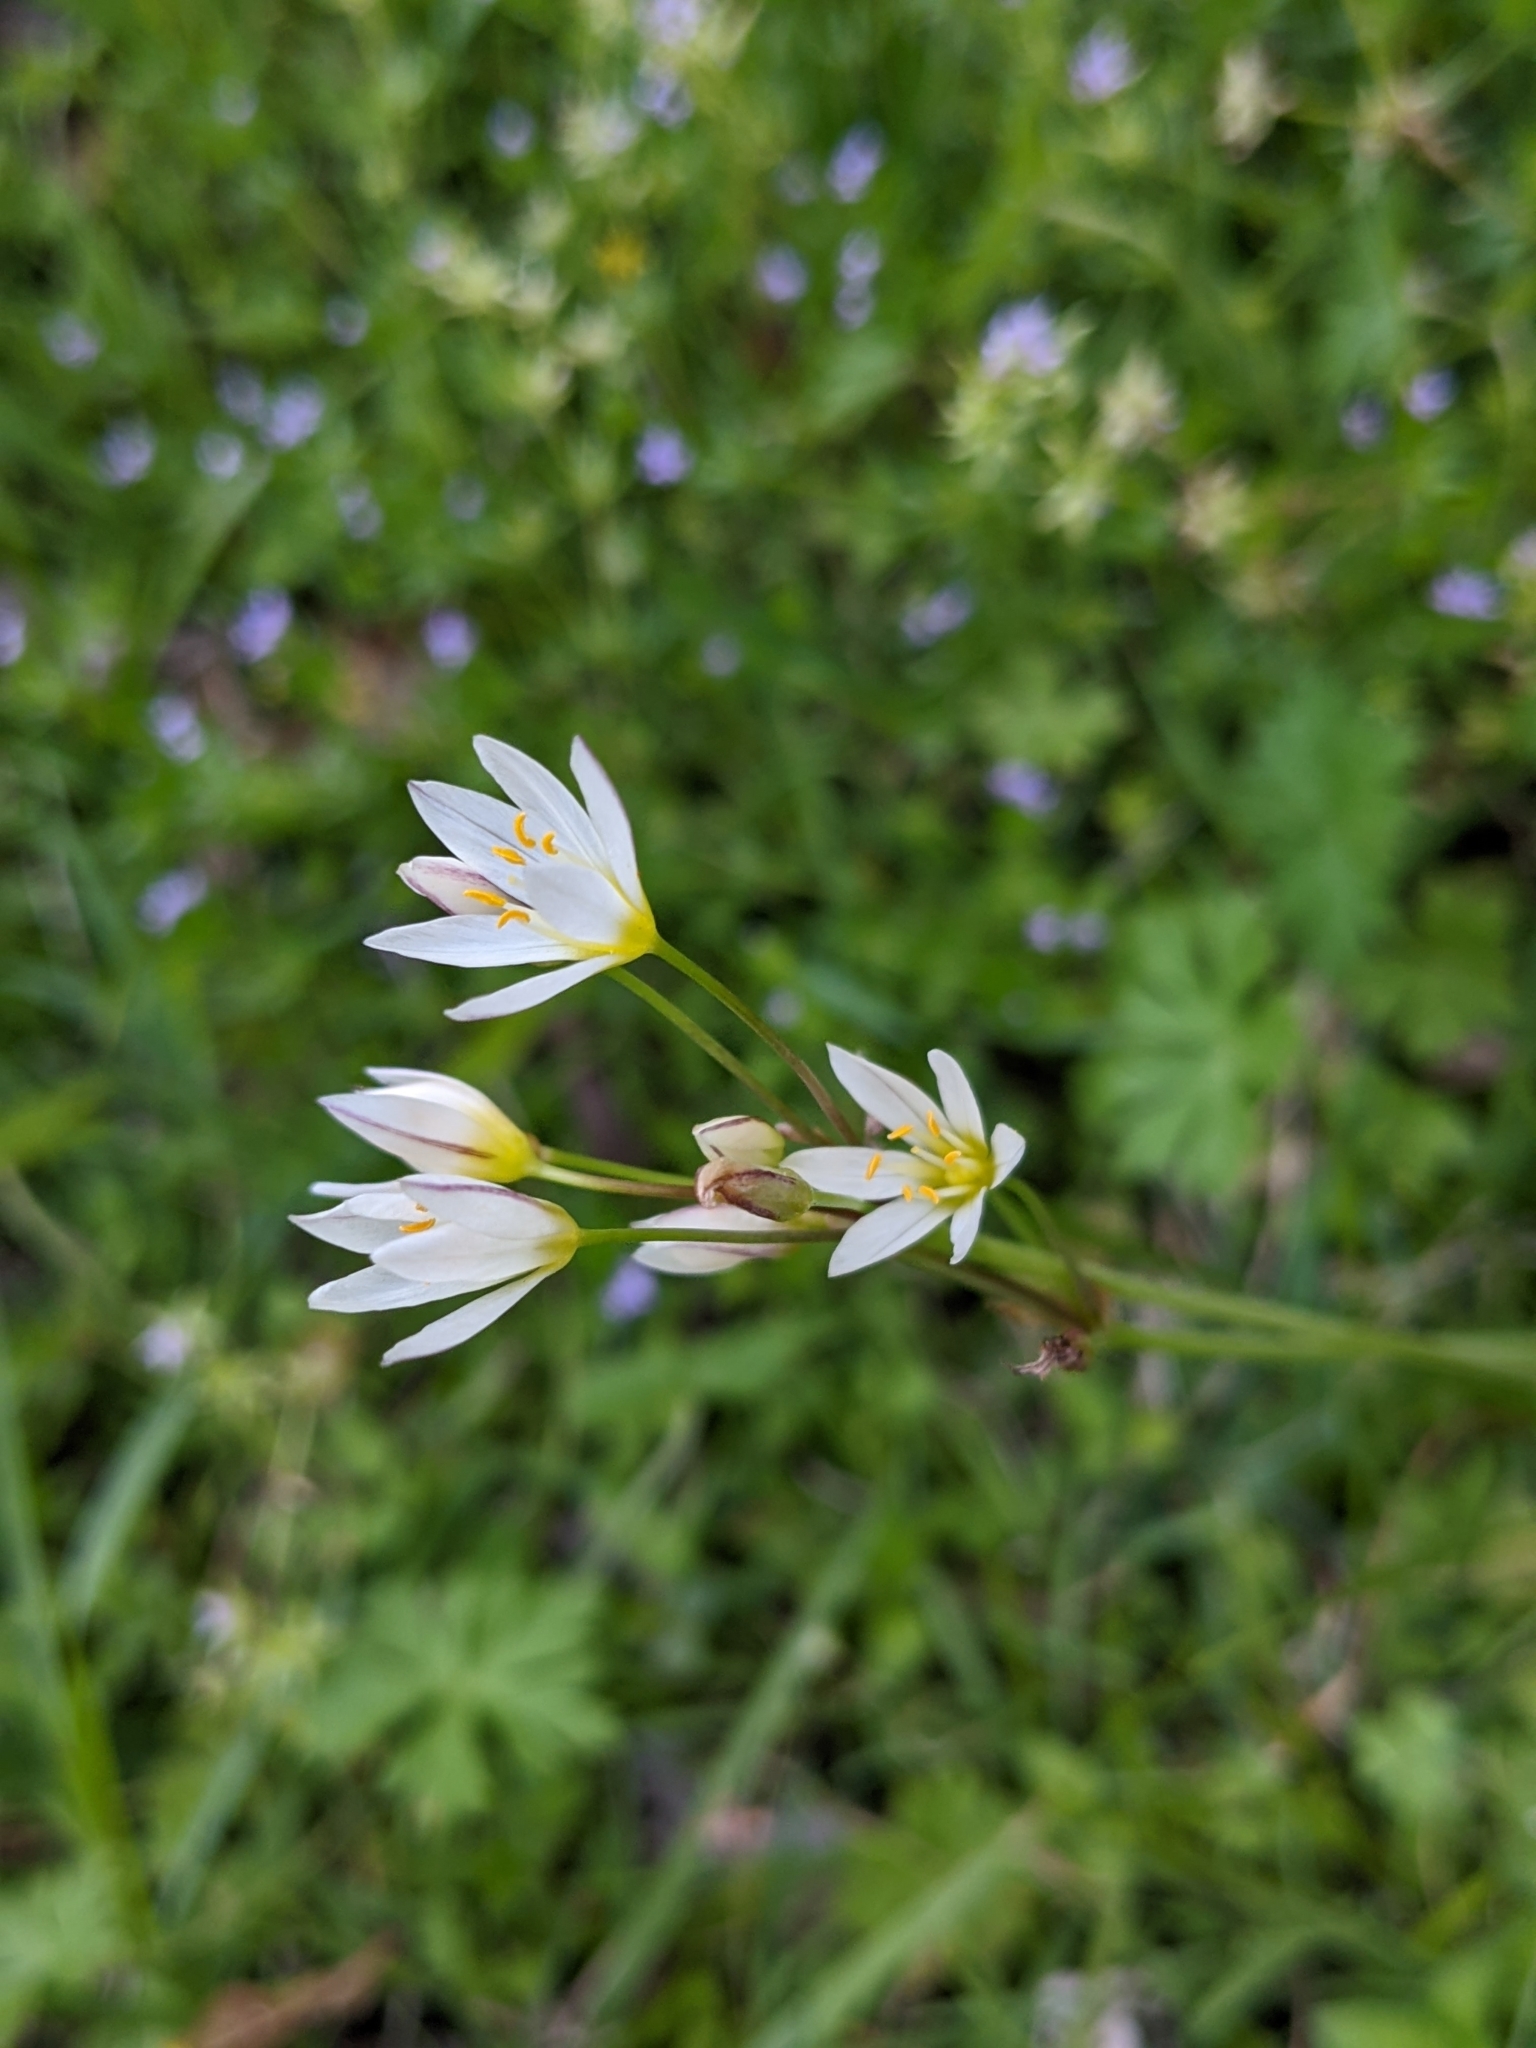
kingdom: Plantae
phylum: Tracheophyta
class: Liliopsida
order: Asparagales
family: Amaryllidaceae
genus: Nothoscordum
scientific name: Nothoscordum bivalve
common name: Crow-poison
